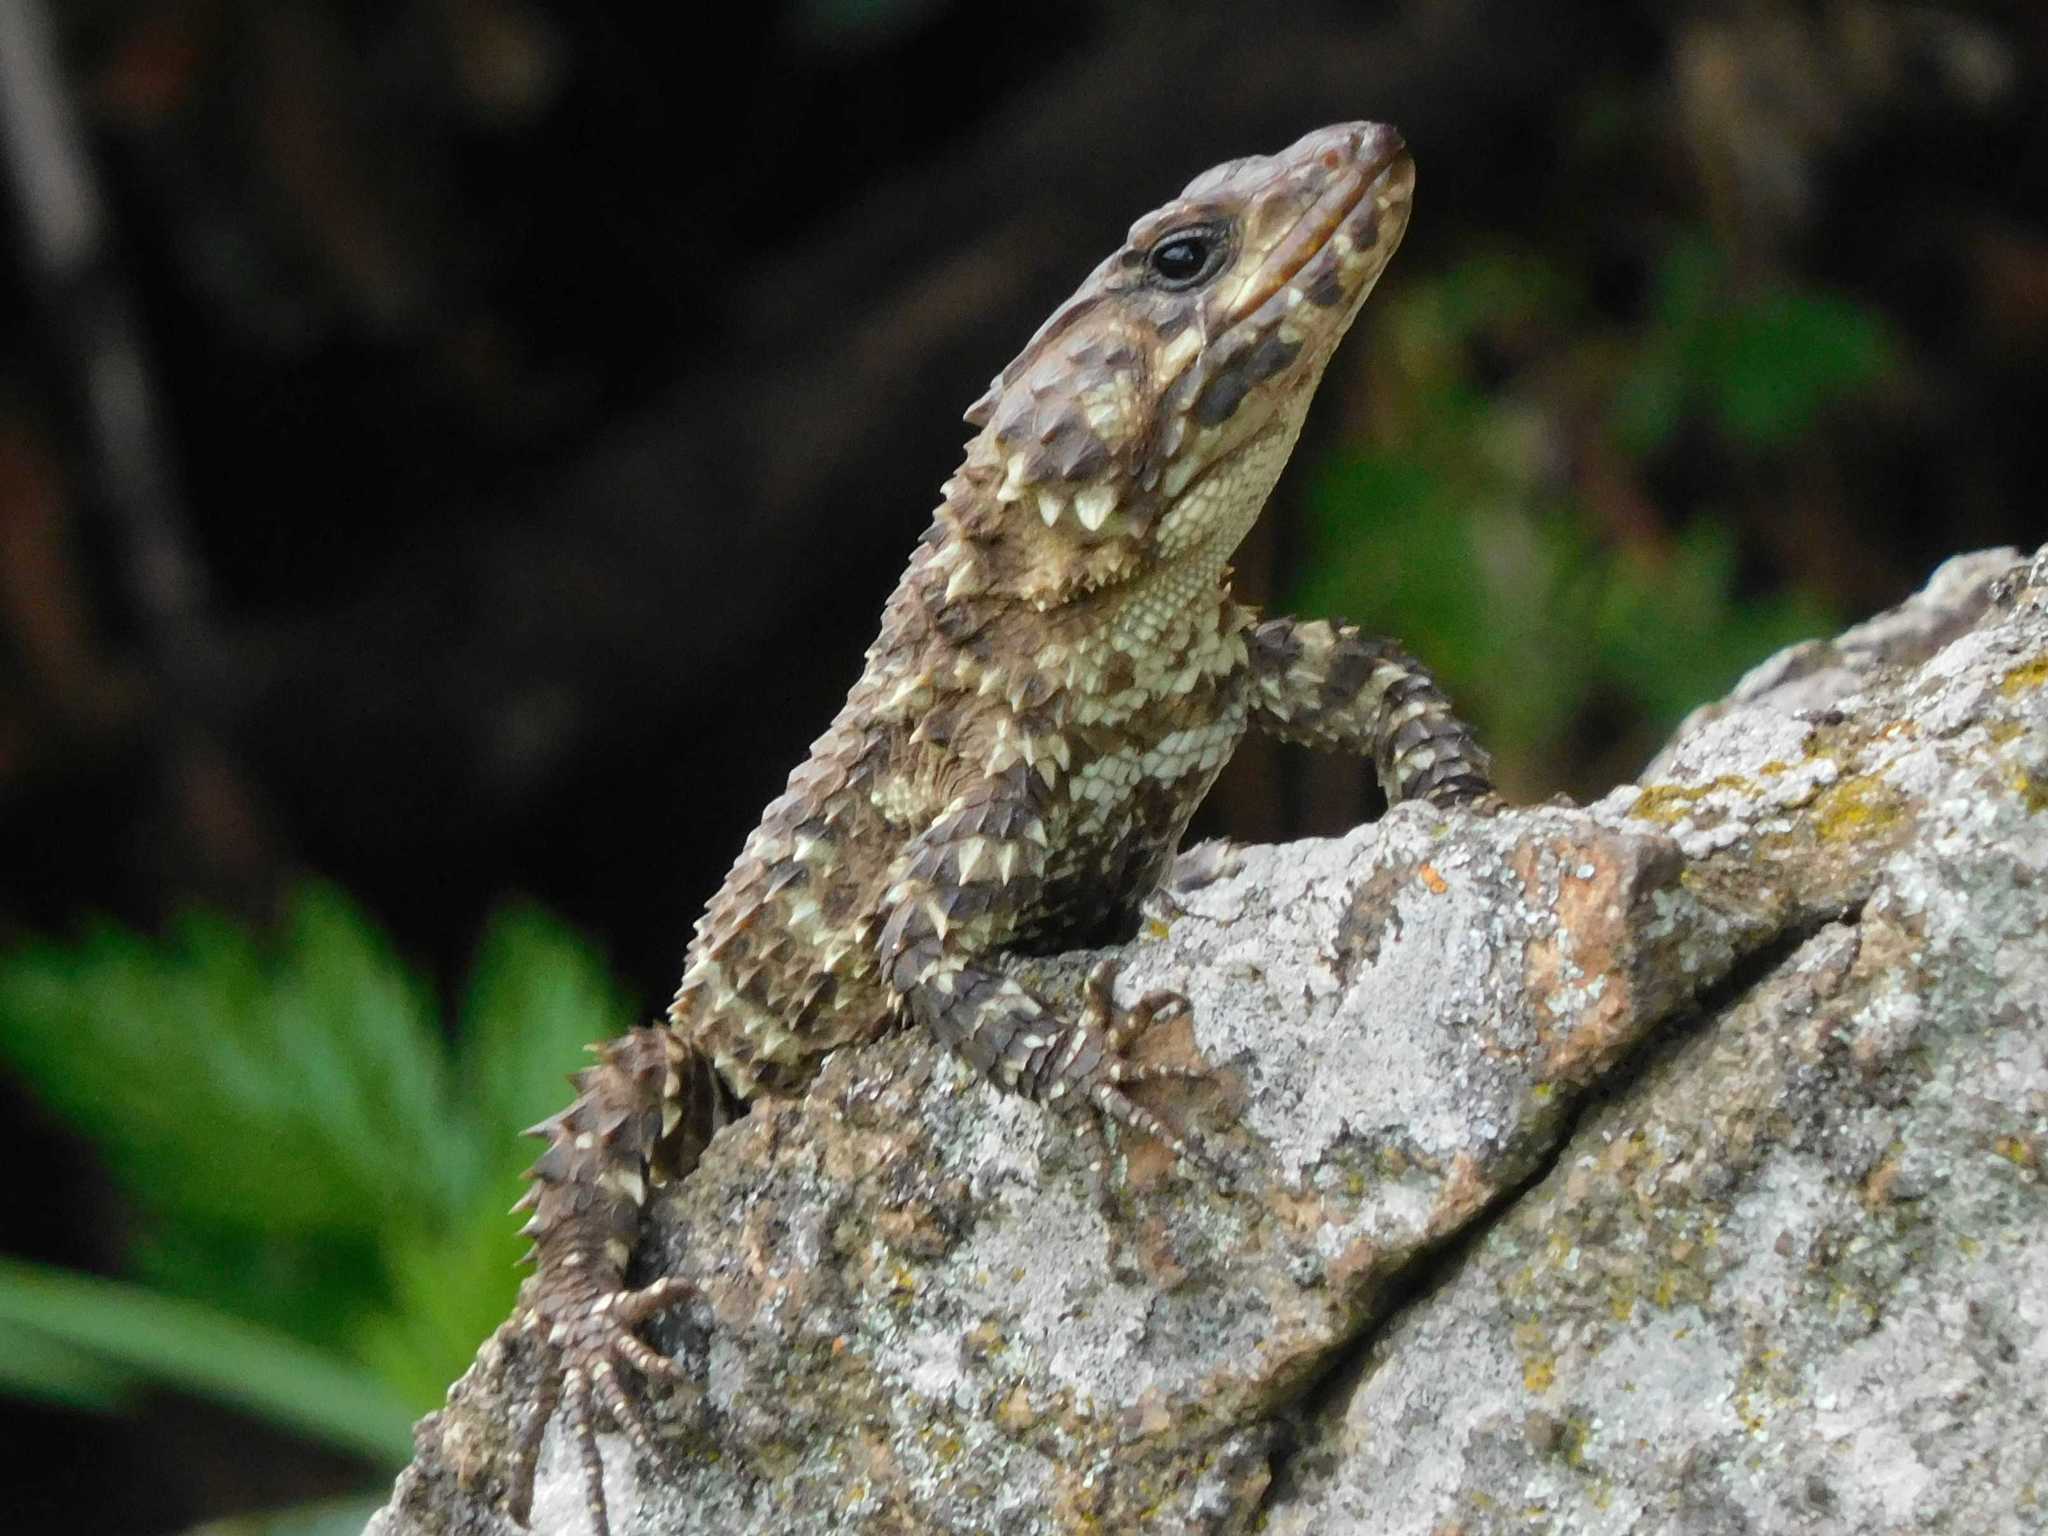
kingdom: Animalia
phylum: Chordata
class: Squamata
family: Cordylidae
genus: Smaug
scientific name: Smaug vandami
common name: Van dam's dragon lizard
